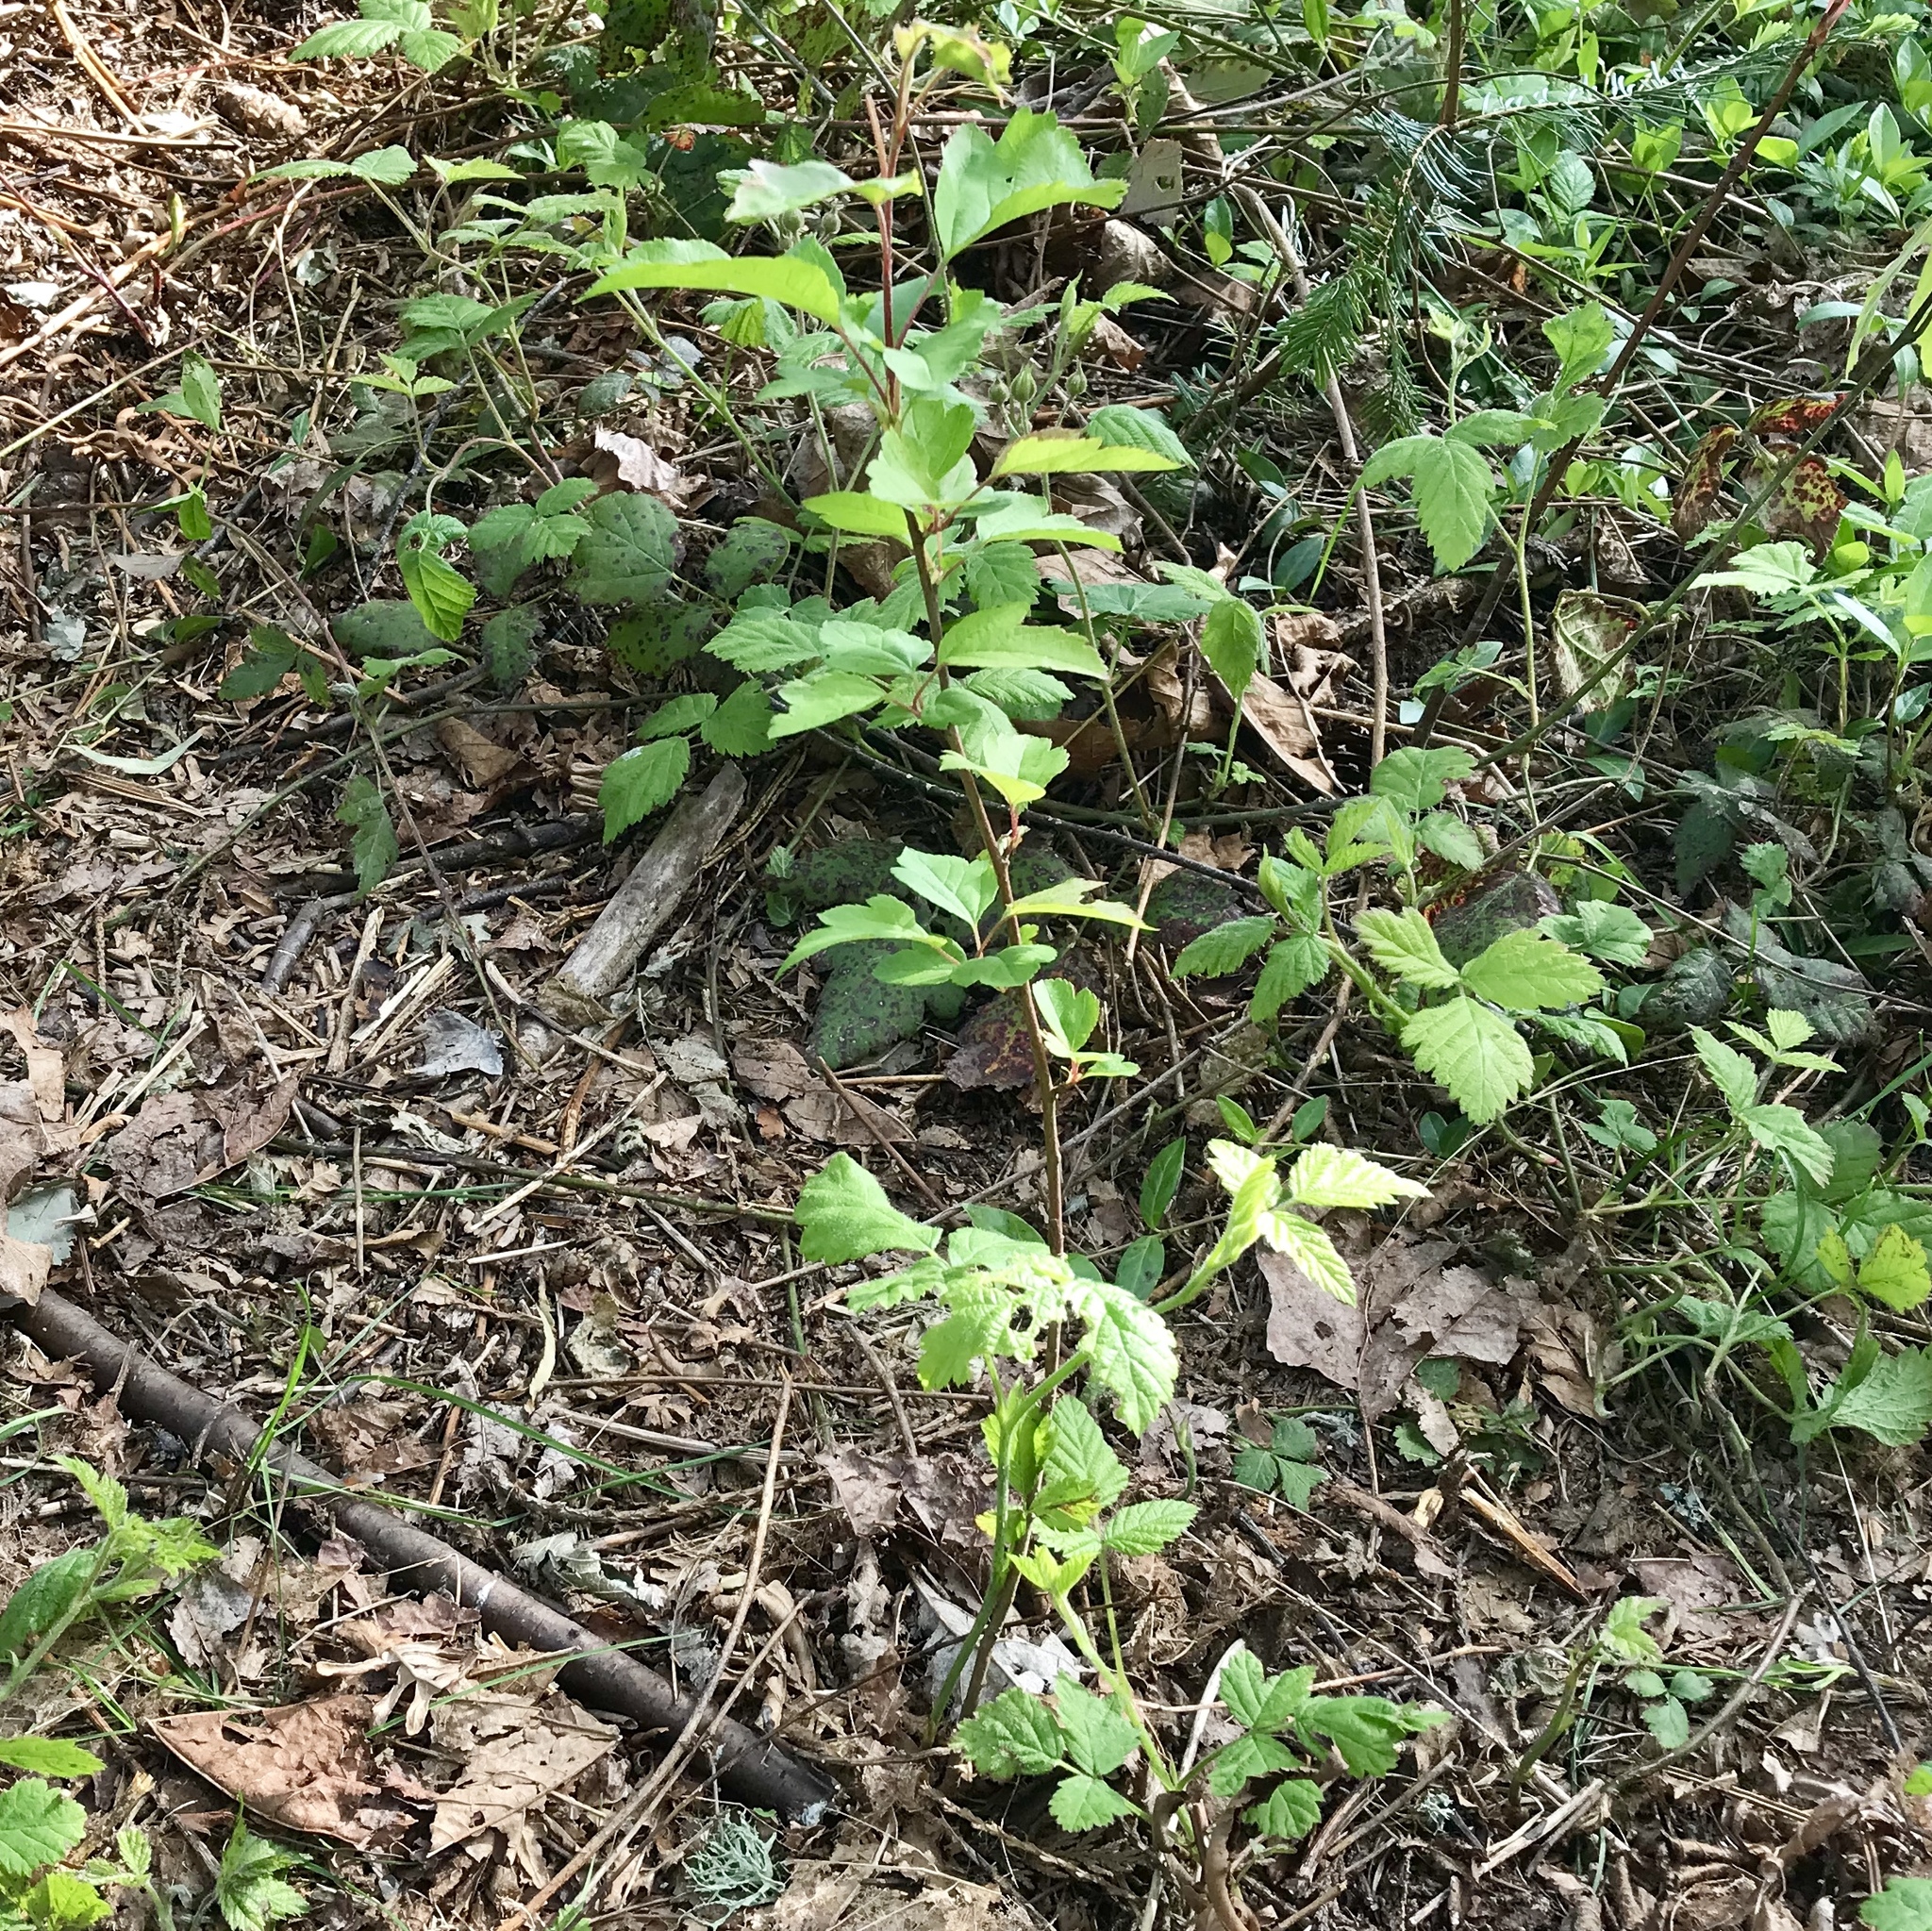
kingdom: Plantae
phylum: Tracheophyta
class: Magnoliopsida
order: Rosales
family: Rosaceae
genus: Malus
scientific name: Malus fusca
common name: Oregon crab apple
